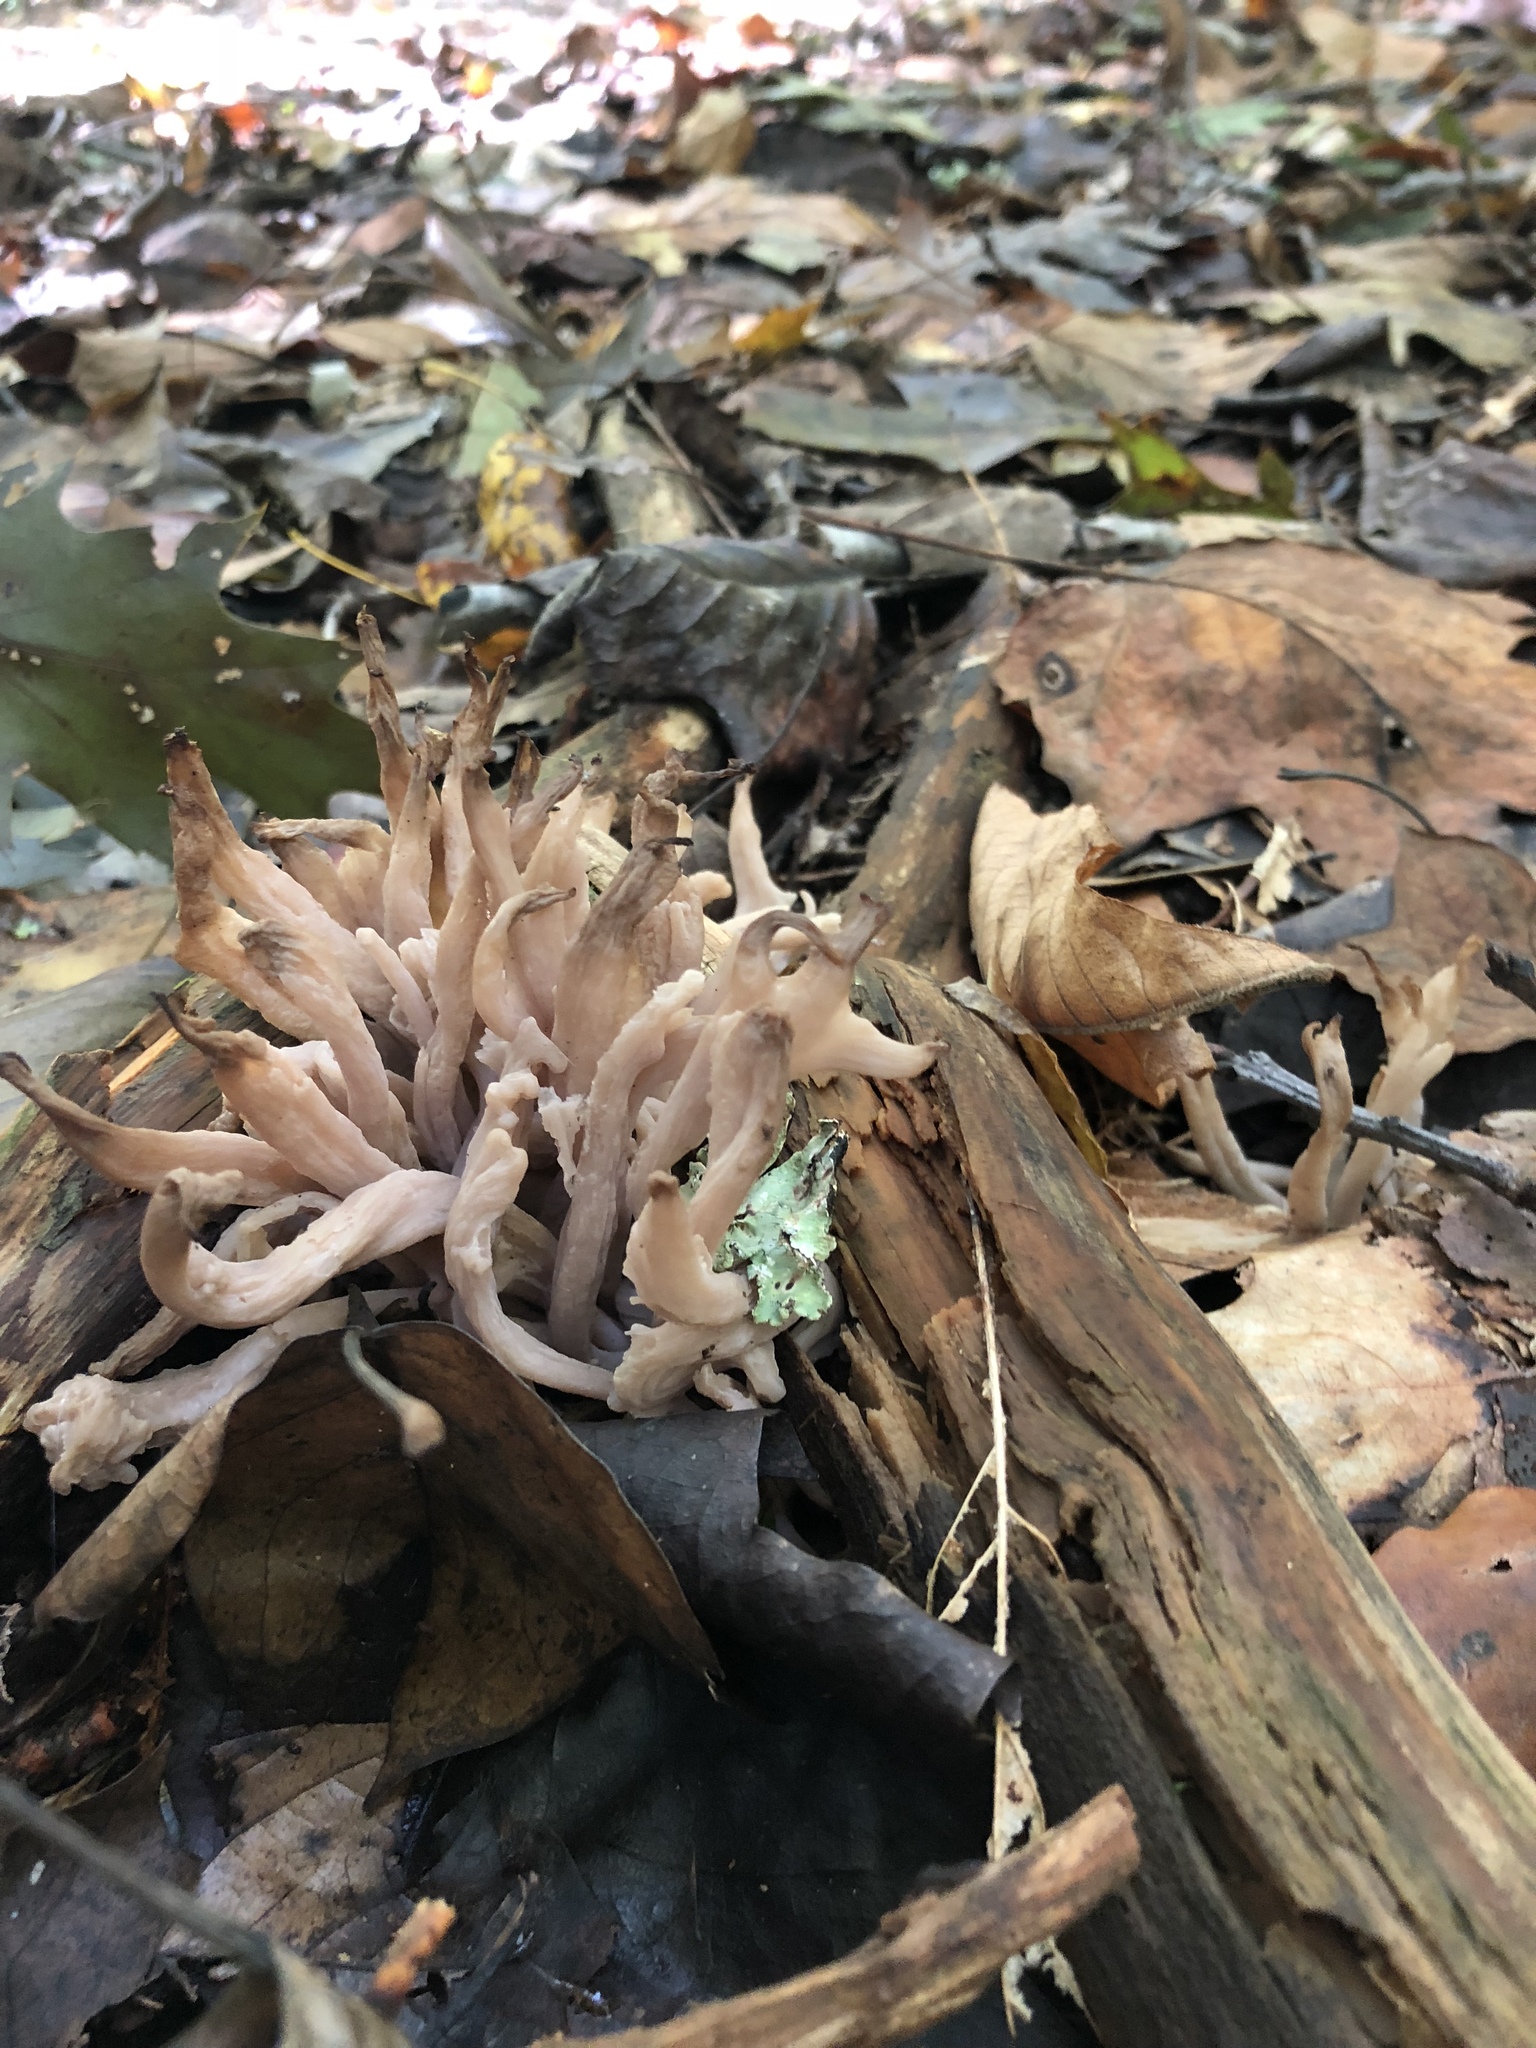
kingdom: Fungi
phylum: Basidiomycota
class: Agaricomycetes
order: Agaricales
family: Clavariaceae
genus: Clavaria
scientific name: Clavaria fumosa
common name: Smoky spindles
